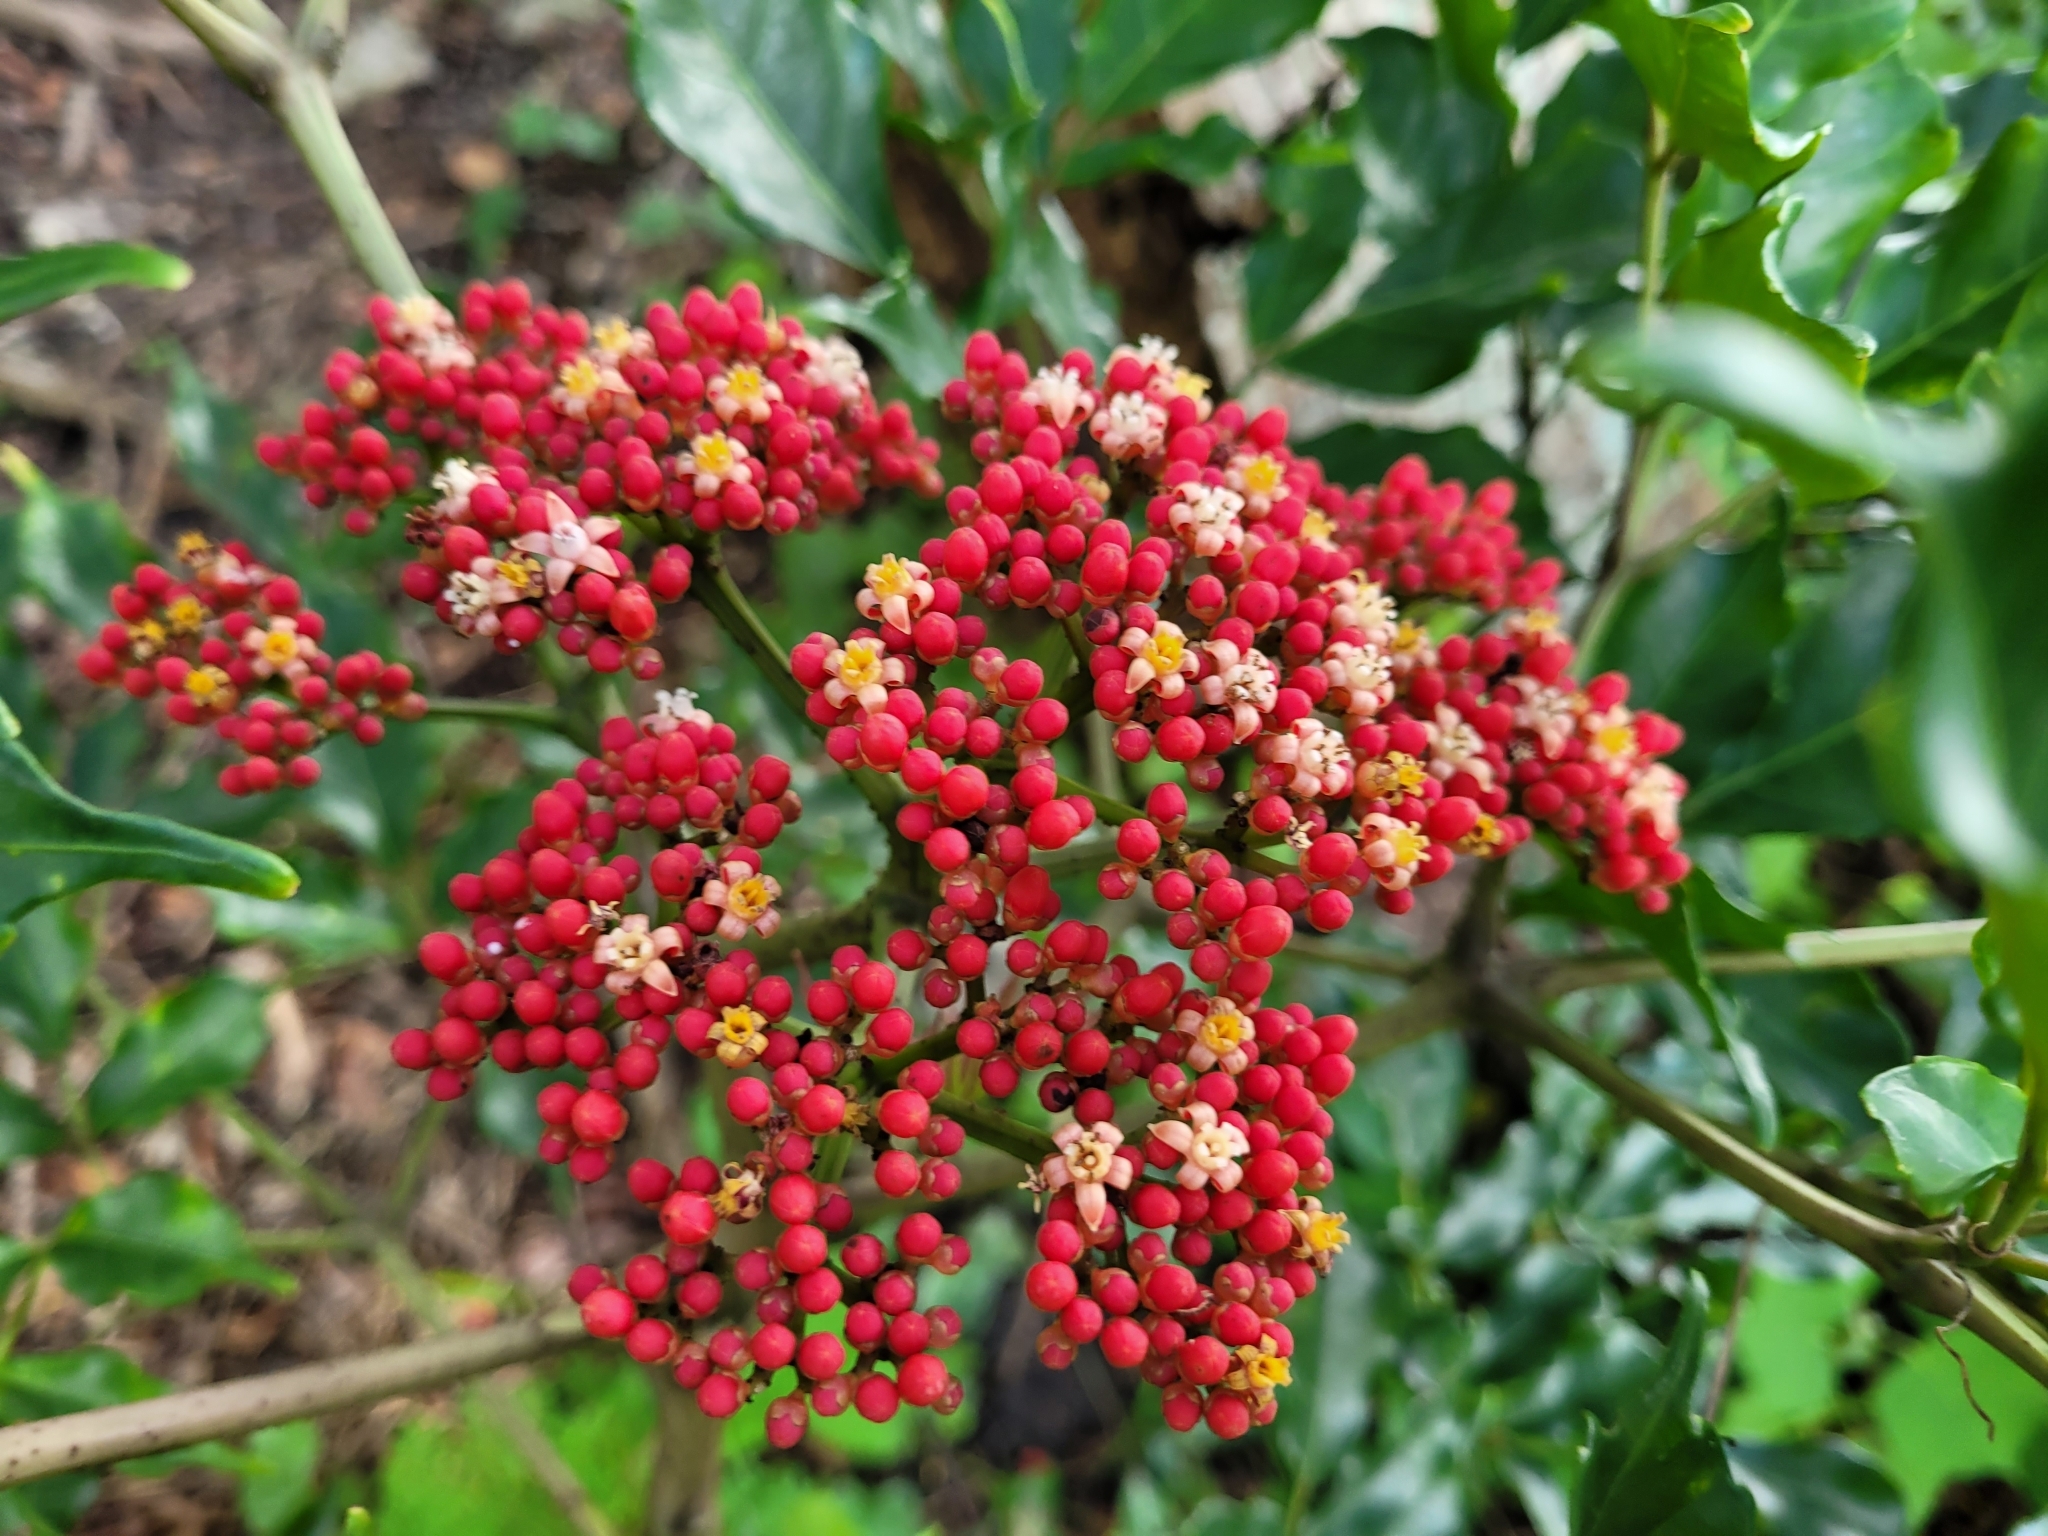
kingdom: Plantae
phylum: Tracheophyta
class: Magnoliopsida
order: Vitales
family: Vitaceae
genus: Leea
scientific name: Leea guineensis
